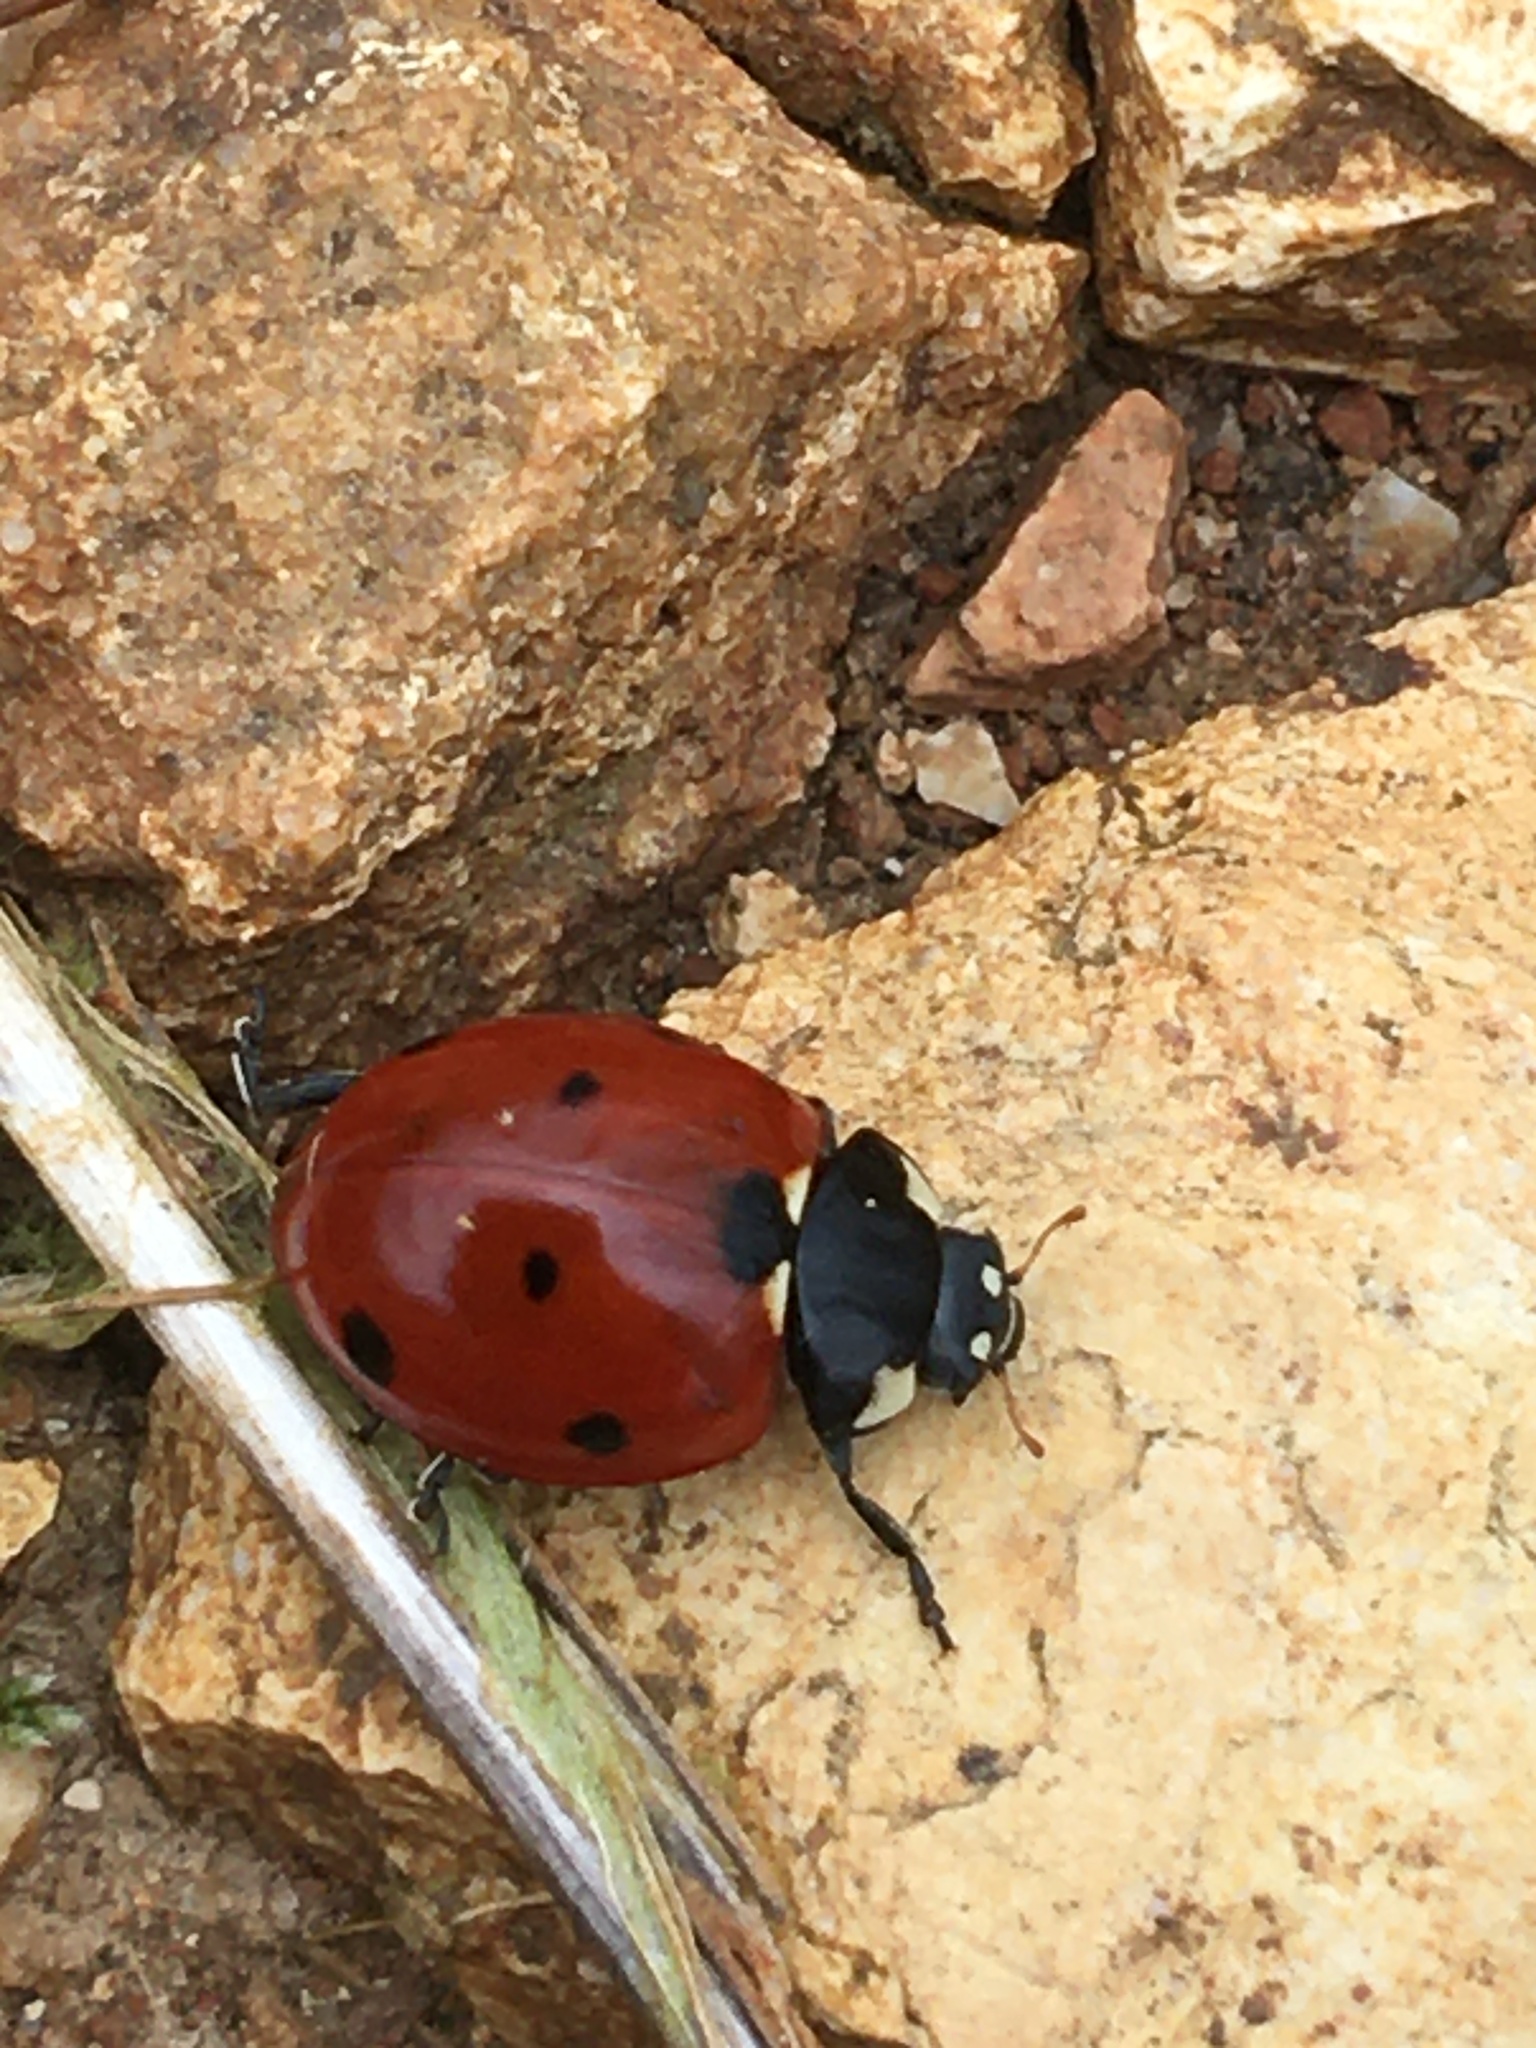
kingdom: Animalia
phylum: Arthropoda
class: Insecta
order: Coleoptera
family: Coccinellidae
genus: Coccinella
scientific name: Coccinella septempunctata
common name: Sevenspotted lady beetle
